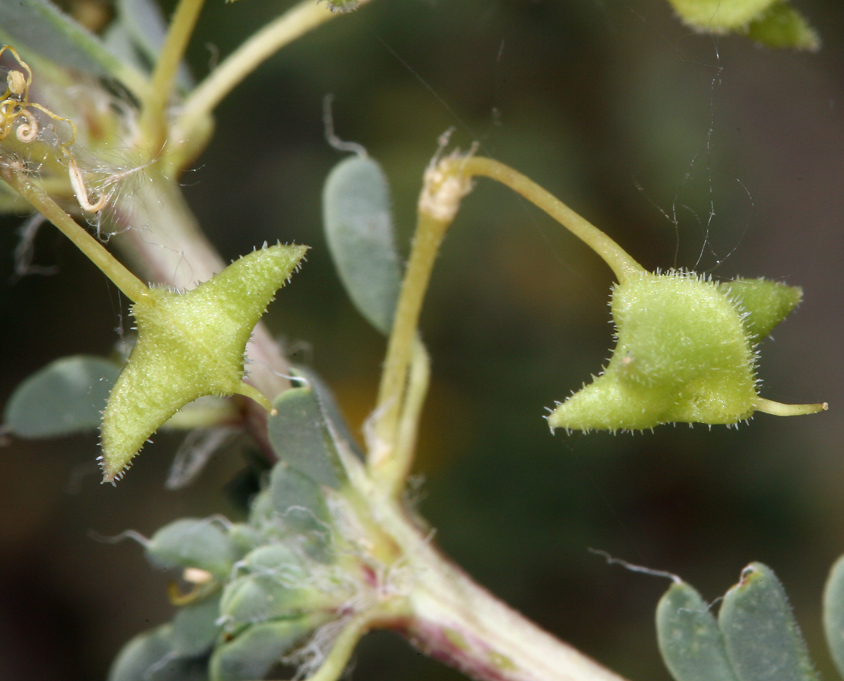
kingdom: Plantae
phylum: Tracheophyta
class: Magnoliopsida
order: Brassicales
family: Cleomaceae
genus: Cleomella
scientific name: Cleomella obtusifolia
